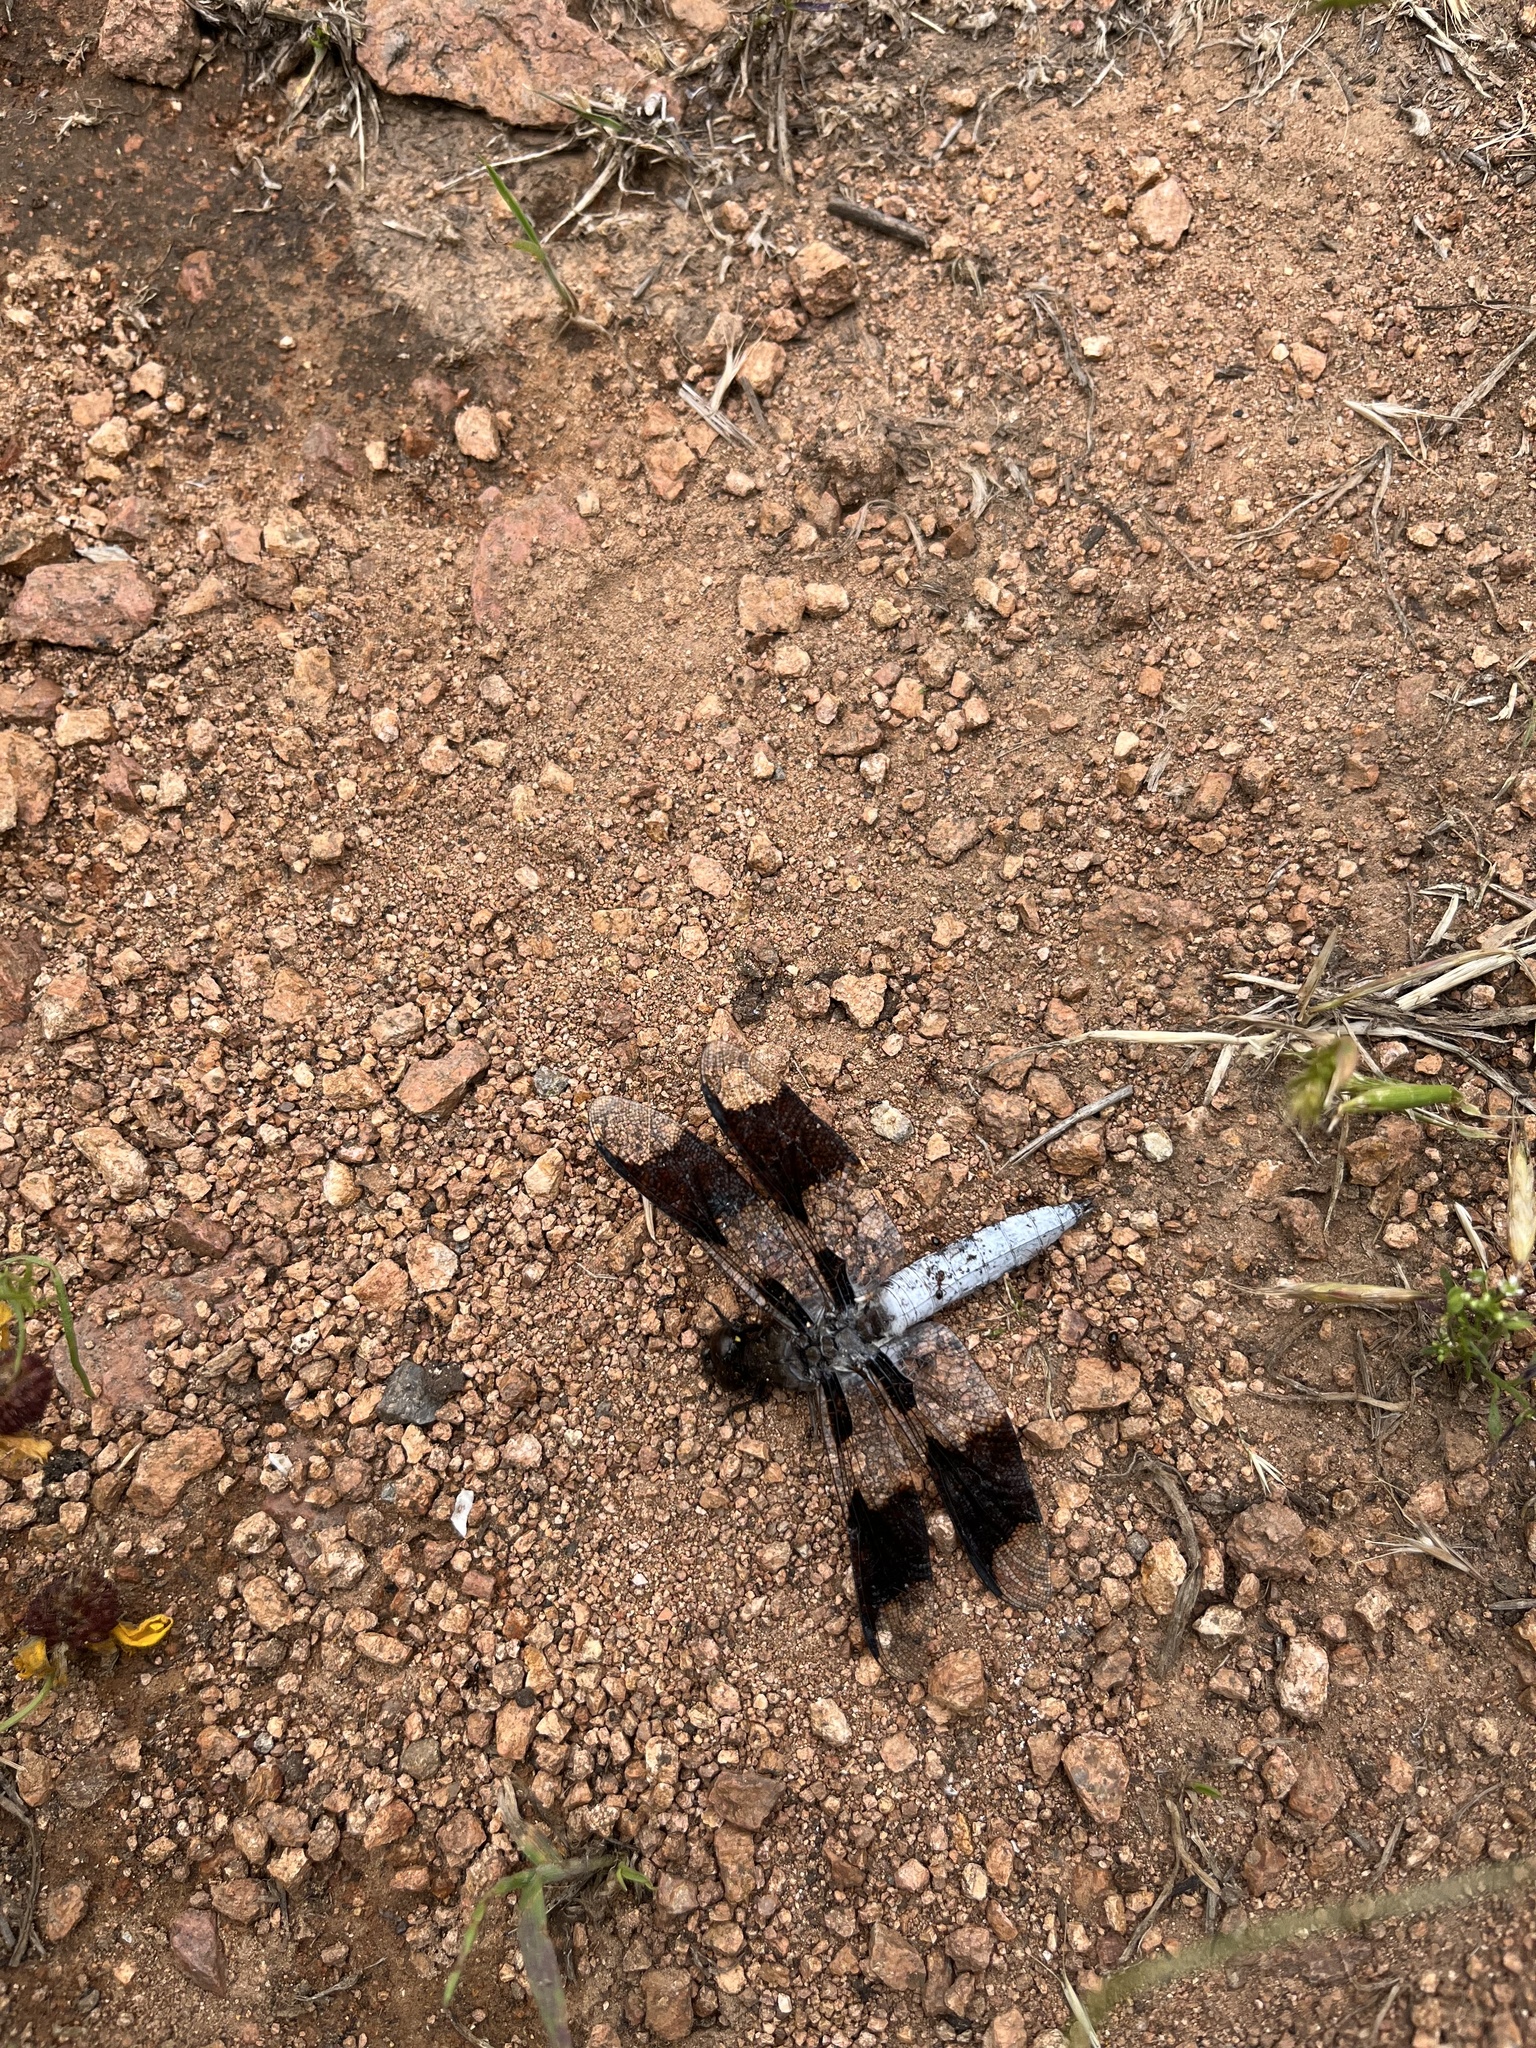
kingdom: Animalia
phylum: Arthropoda
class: Insecta
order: Odonata
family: Libellulidae
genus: Plathemis
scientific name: Plathemis lydia
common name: Common whitetail
